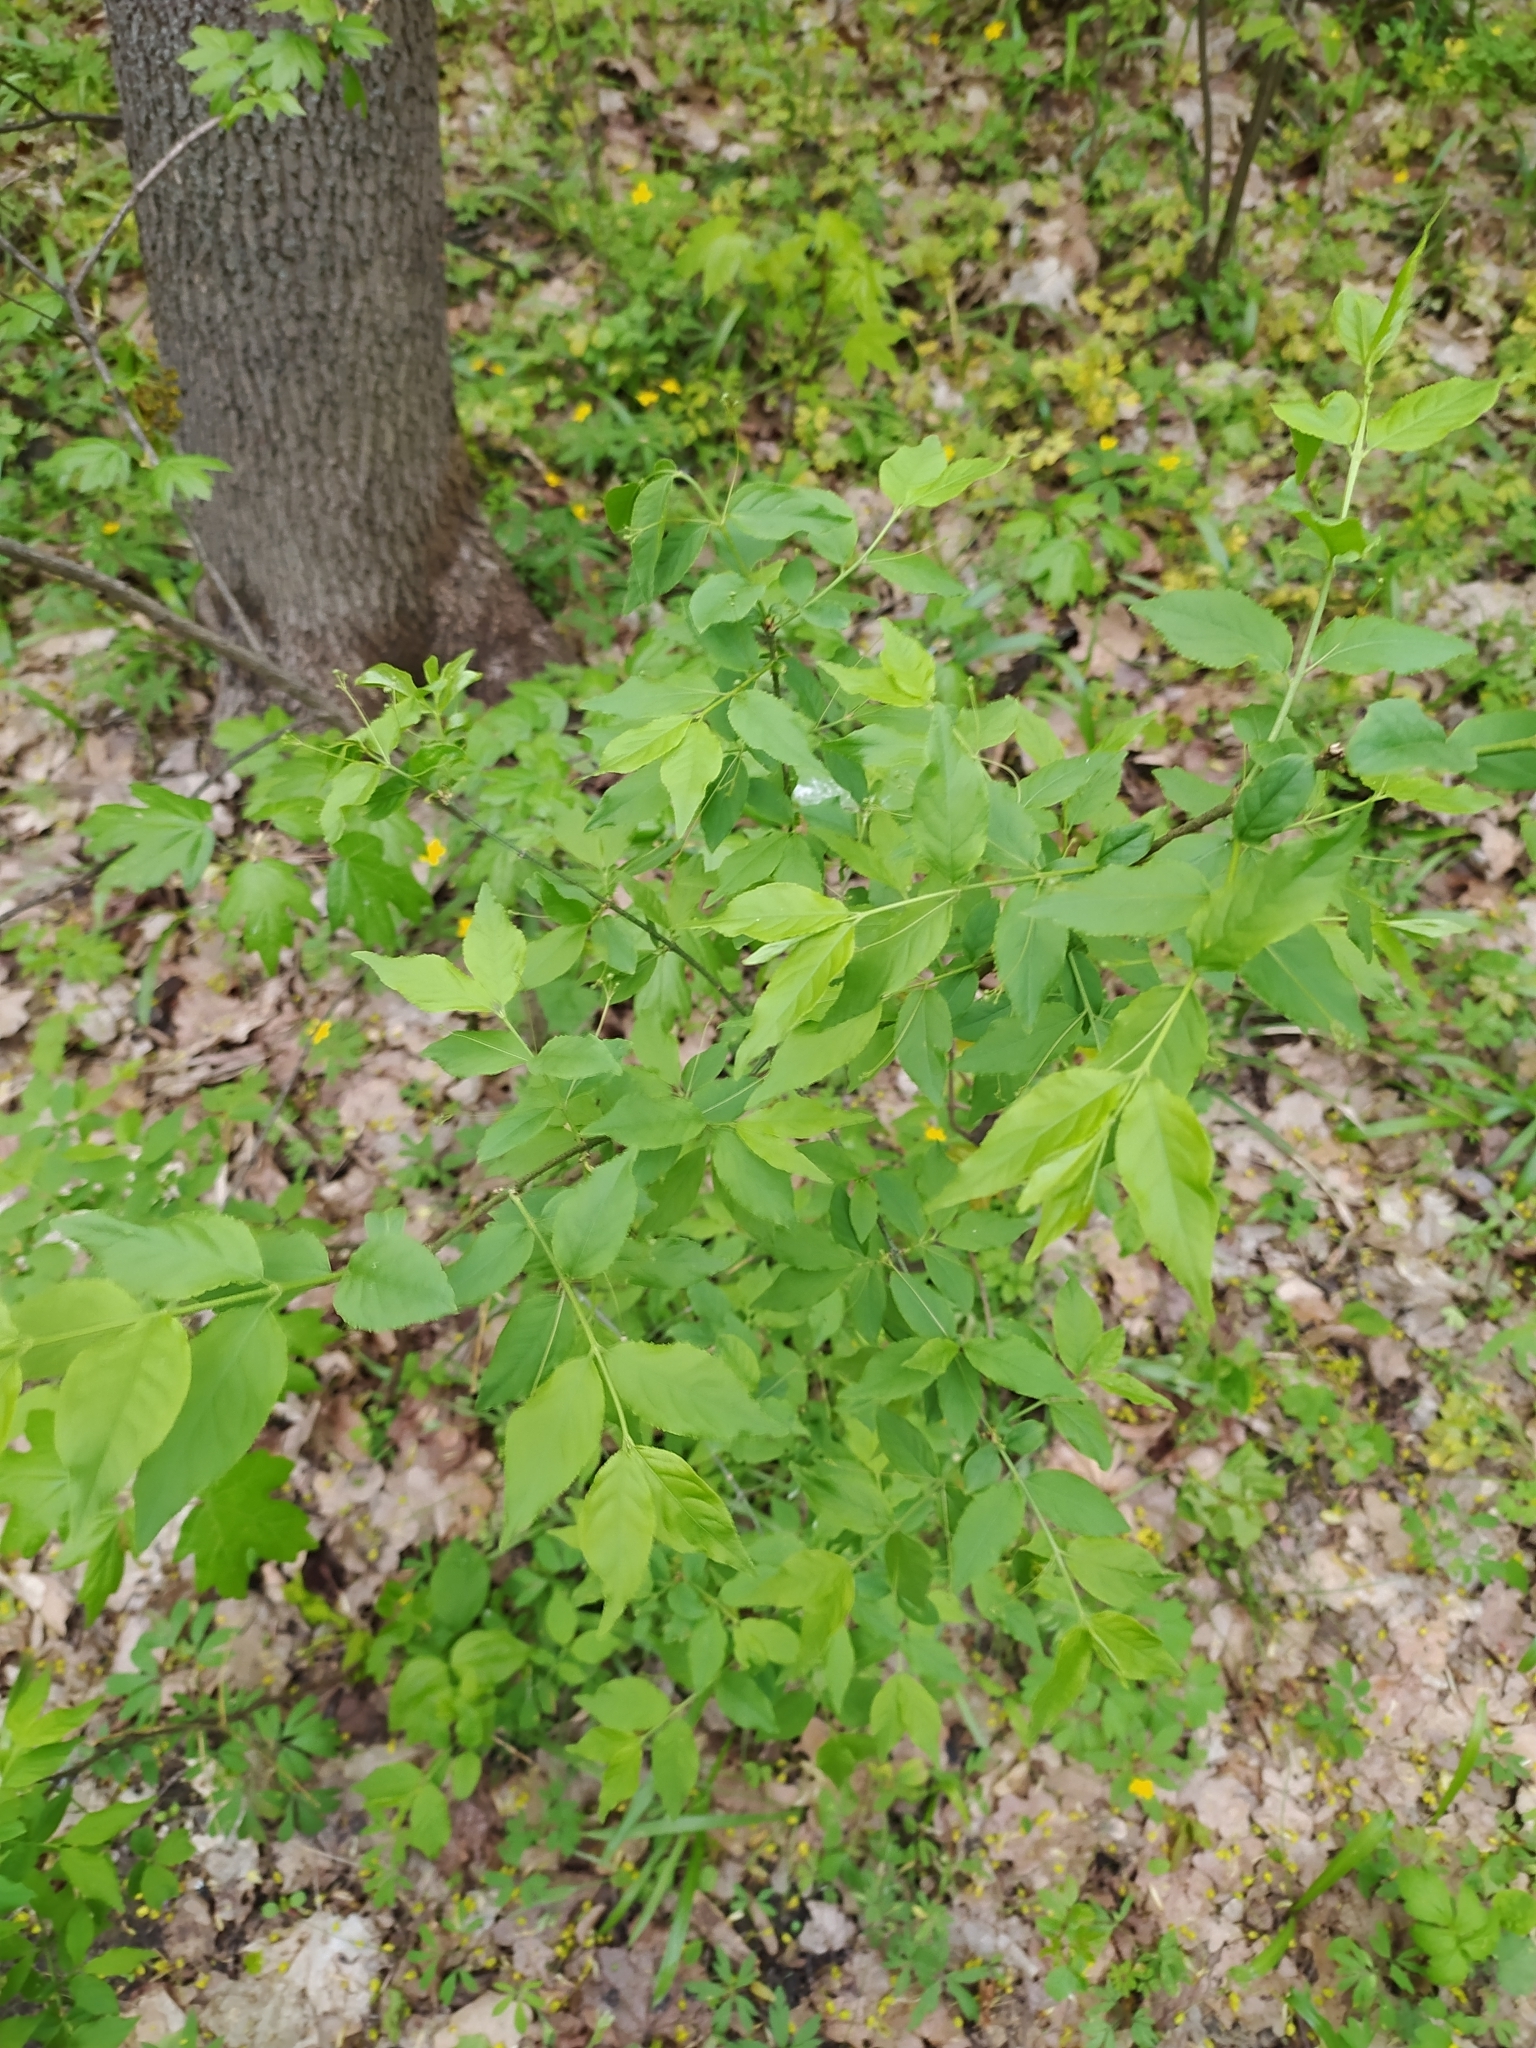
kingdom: Plantae
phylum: Tracheophyta
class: Magnoliopsida
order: Celastrales
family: Celastraceae
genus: Euonymus
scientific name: Euonymus verrucosus
